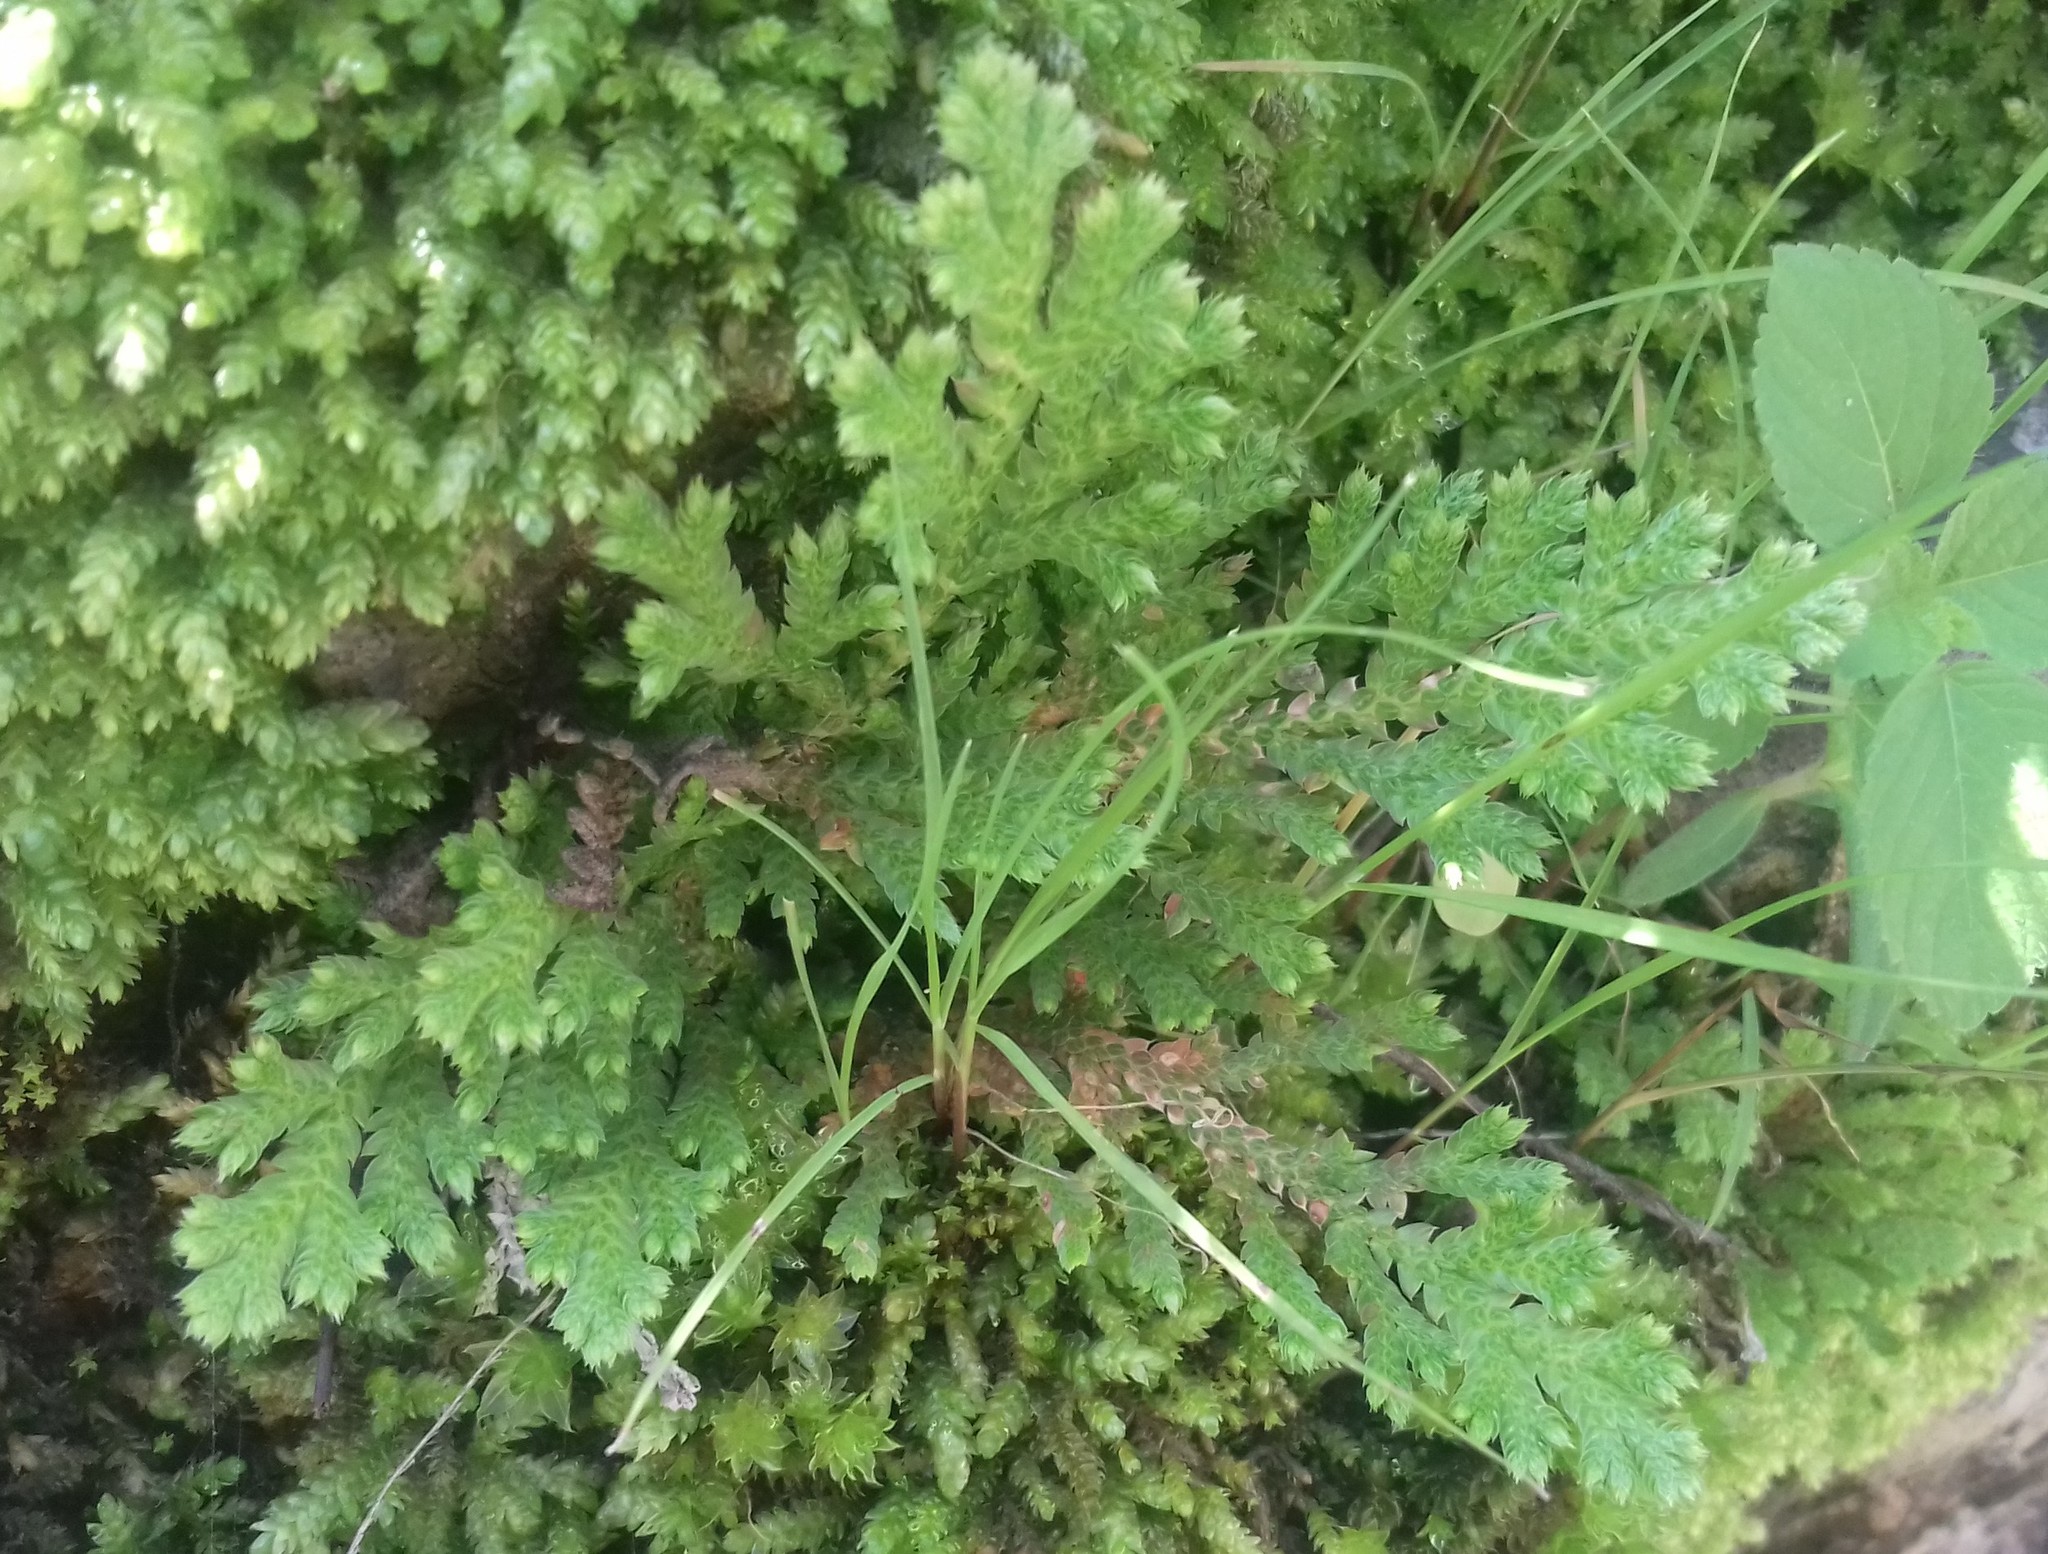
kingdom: Plantae
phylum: Tracheophyta
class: Lycopodiopsida
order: Selaginellales
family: Selaginellaceae
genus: Selaginella
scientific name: Selaginella lepidophylla
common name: Rose-of-jericho
